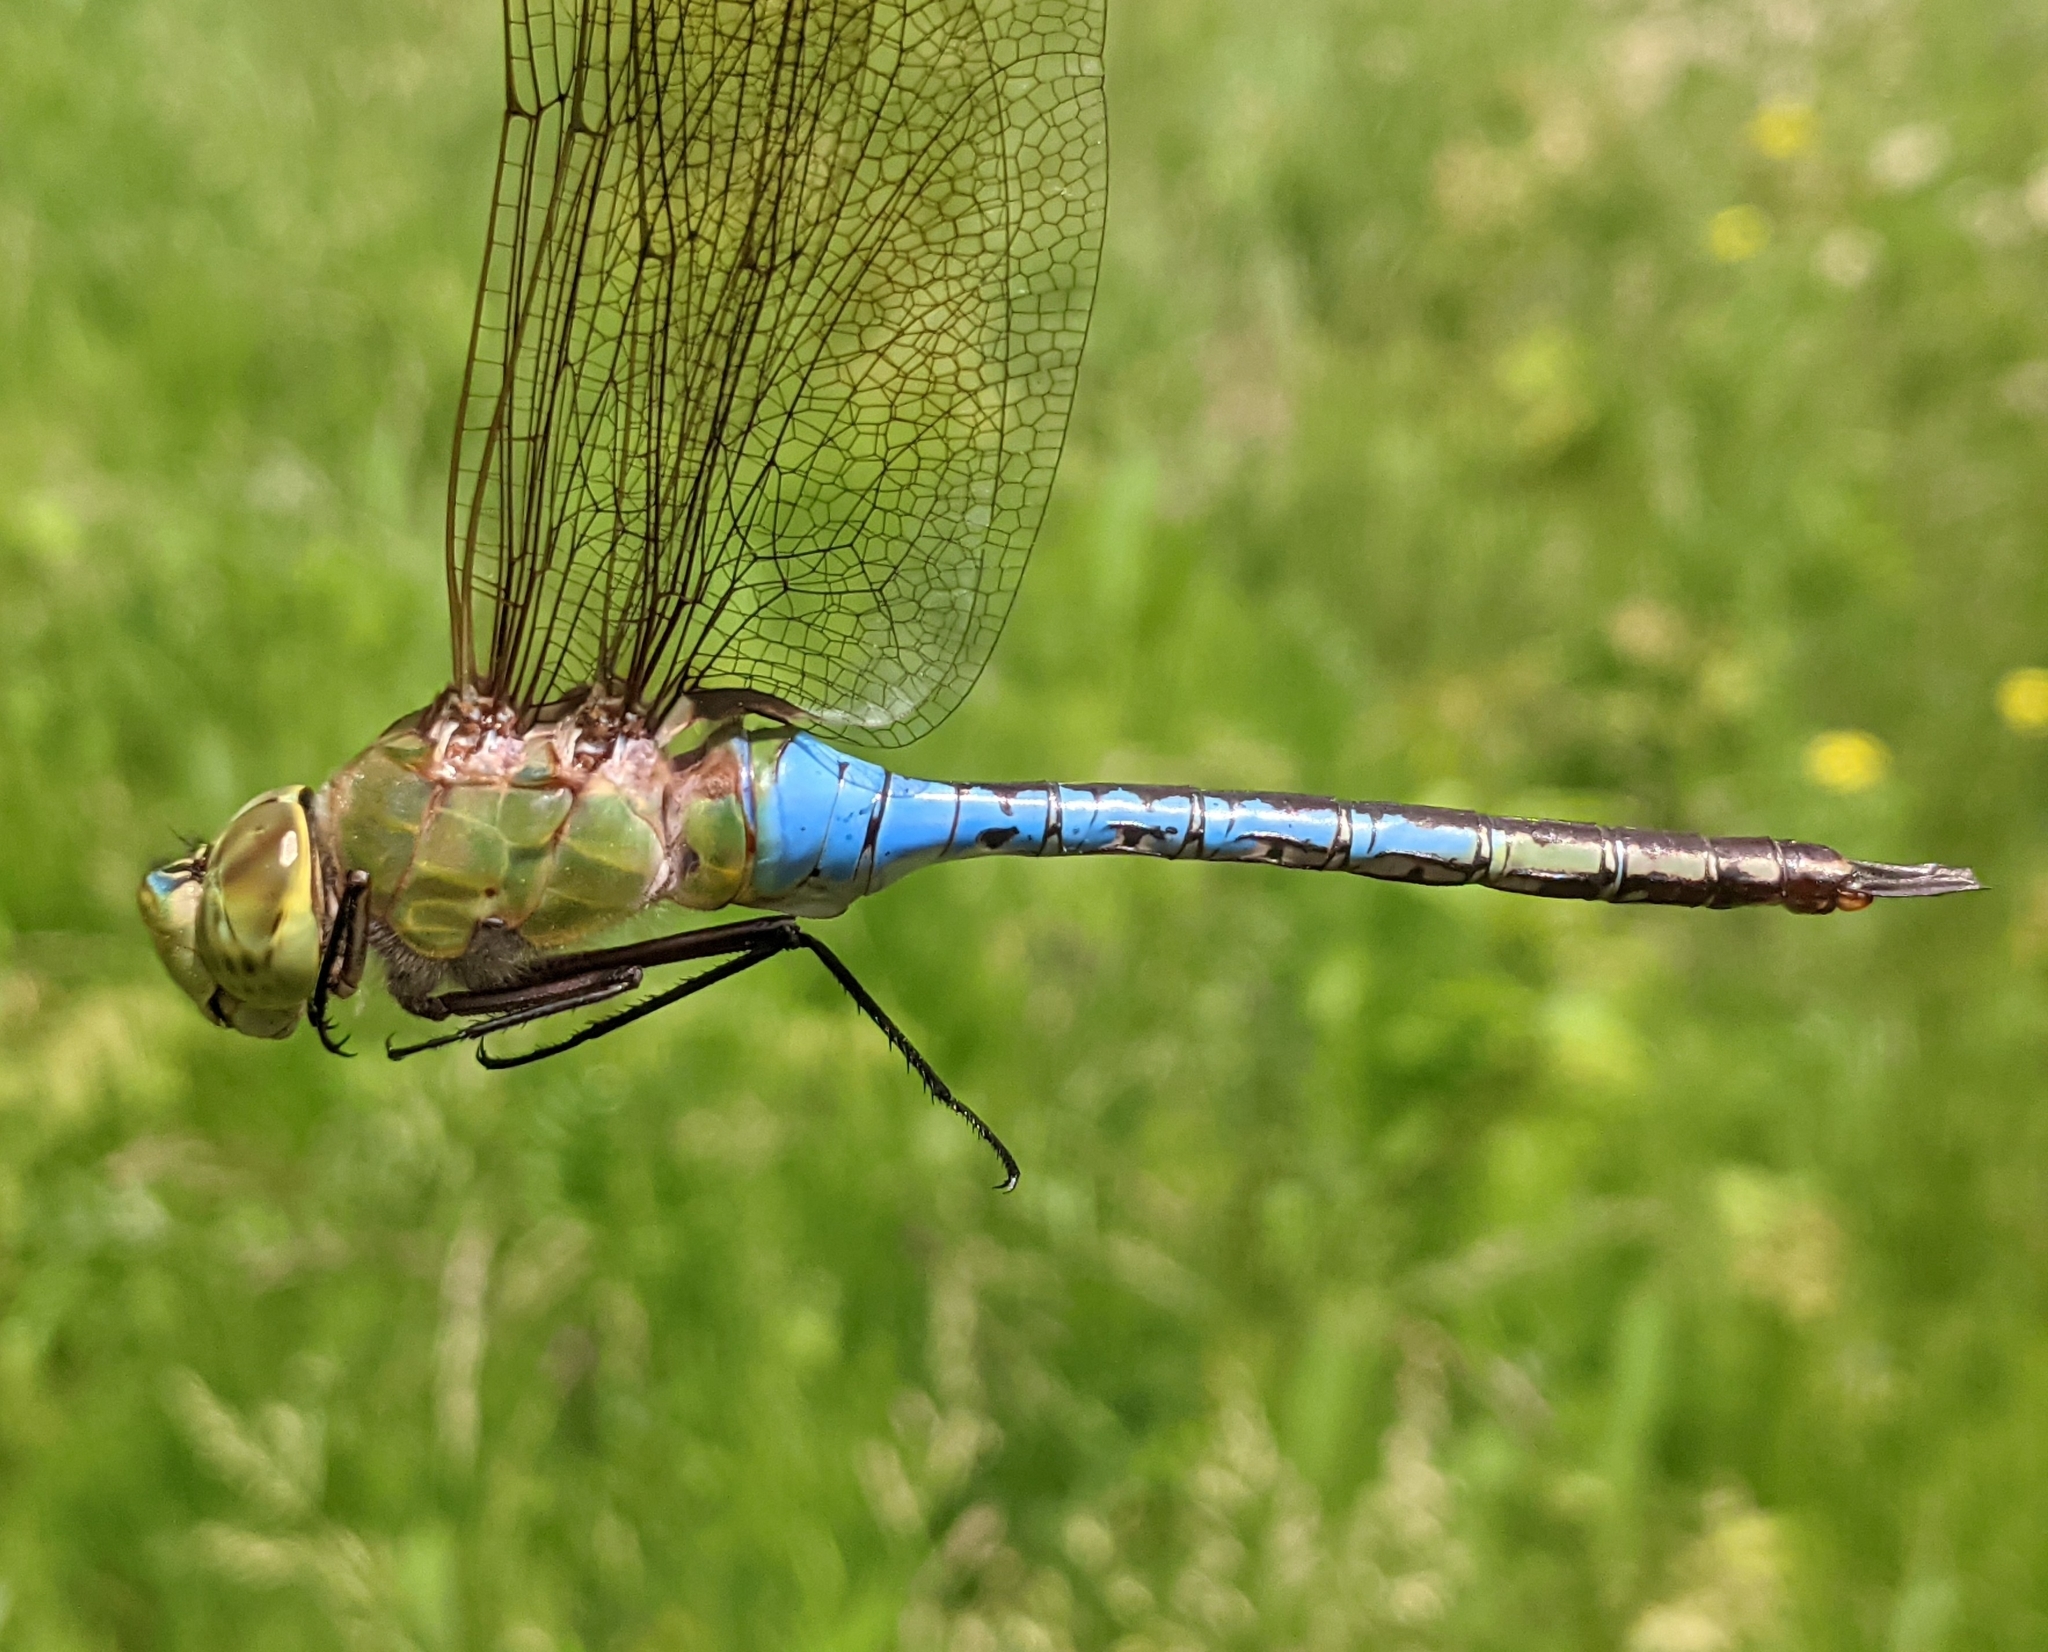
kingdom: Animalia
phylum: Arthropoda
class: Insecta
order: Odonata
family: Aeshnidae
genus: Anax
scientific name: Anax junius
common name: Common green darner
